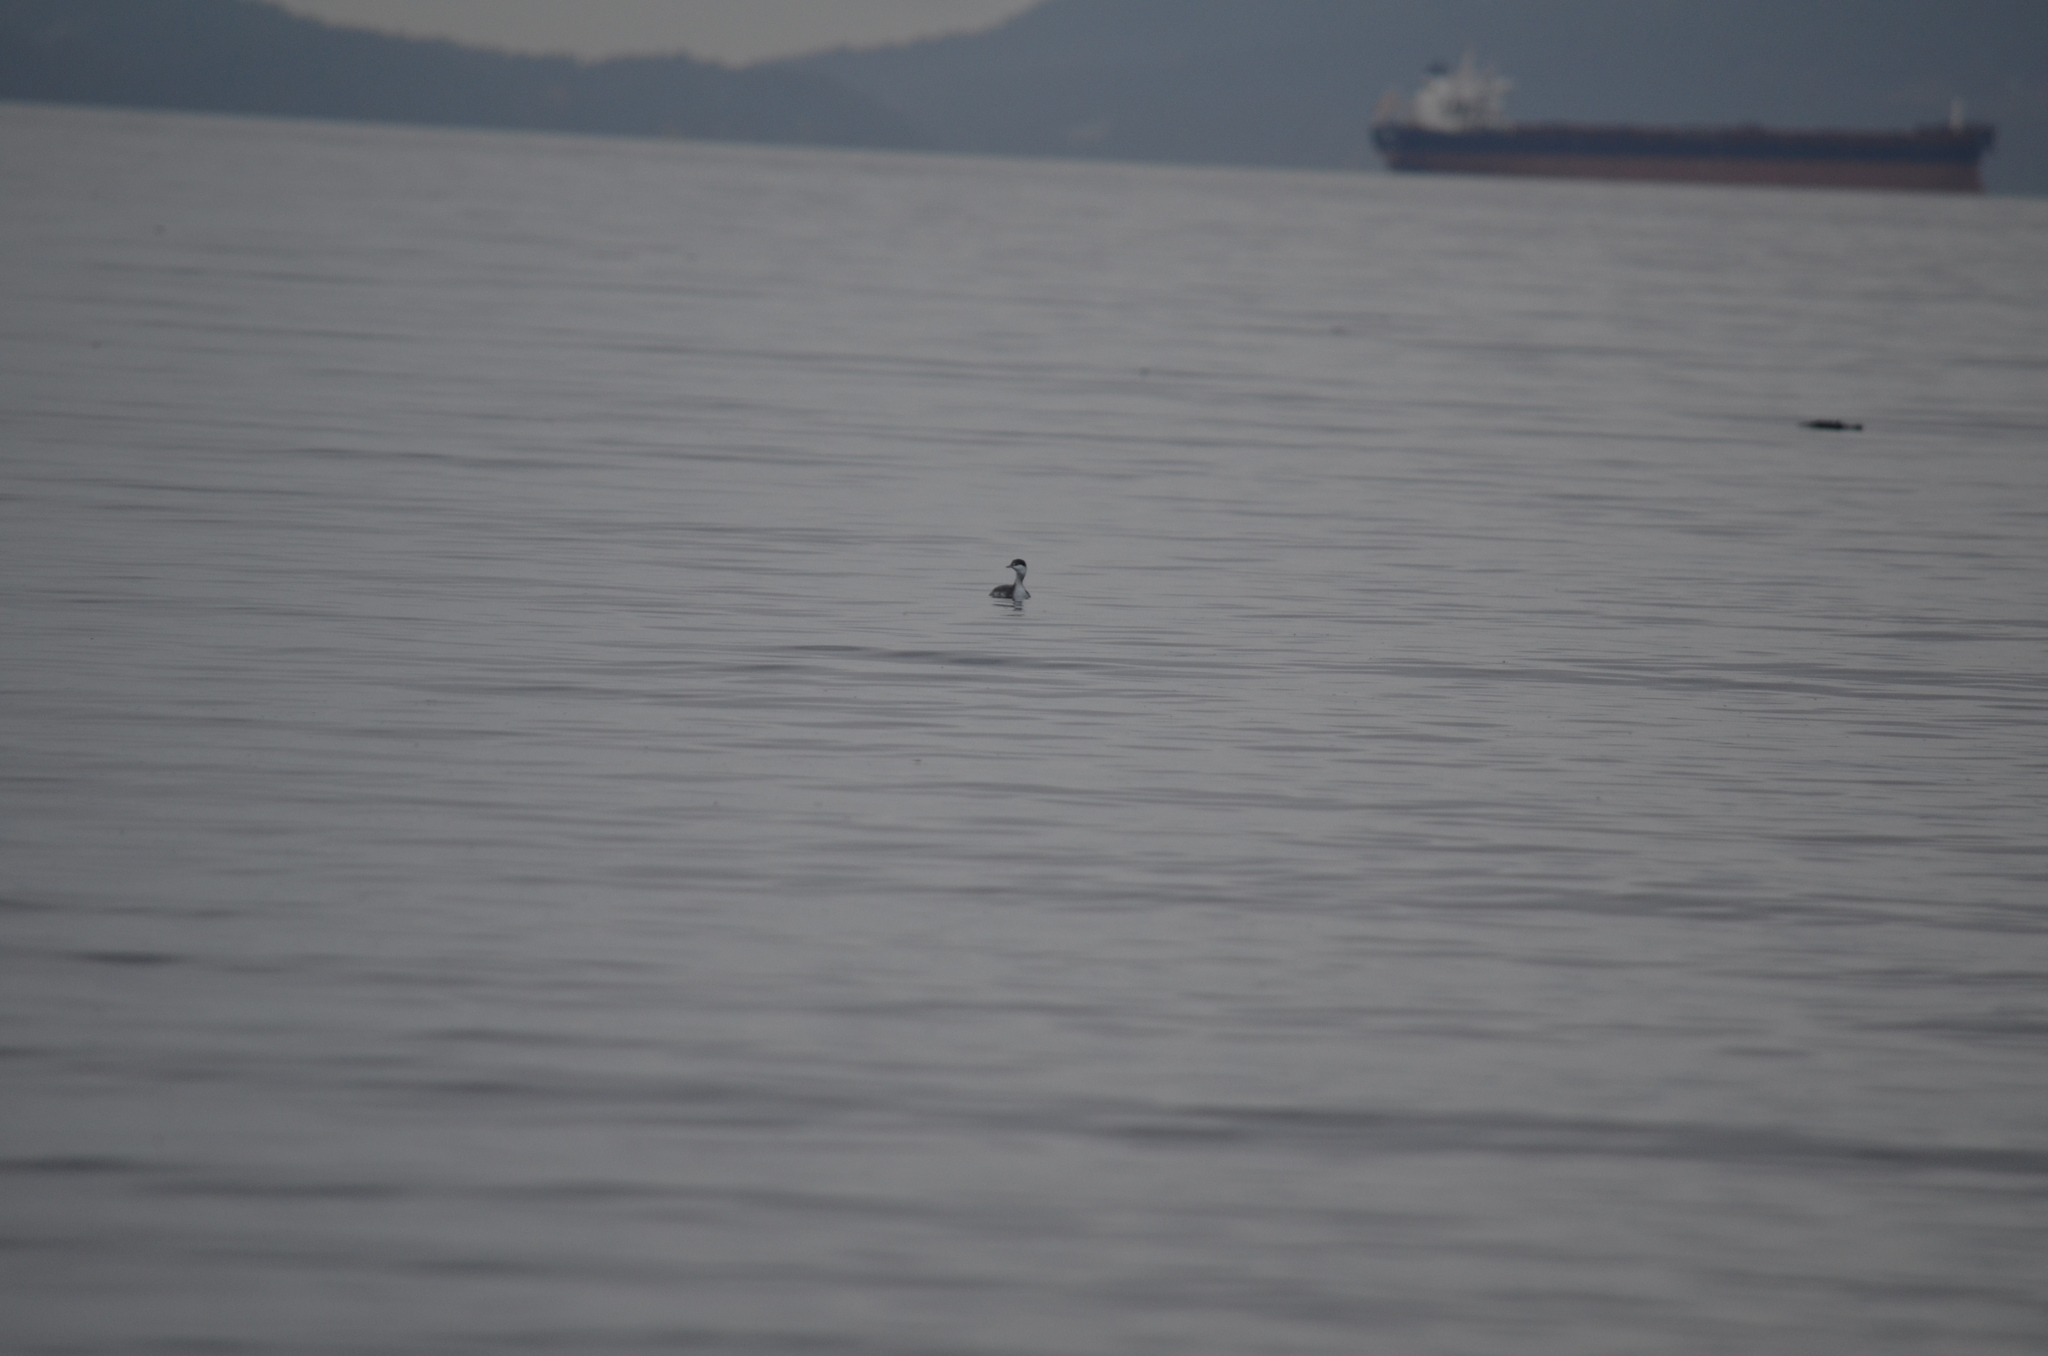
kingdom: Animalia
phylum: Chordata
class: Aves
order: Podicipediformes
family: Podicipedidae
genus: Podiceps
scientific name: Podiceps auritus
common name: Horned grebe
